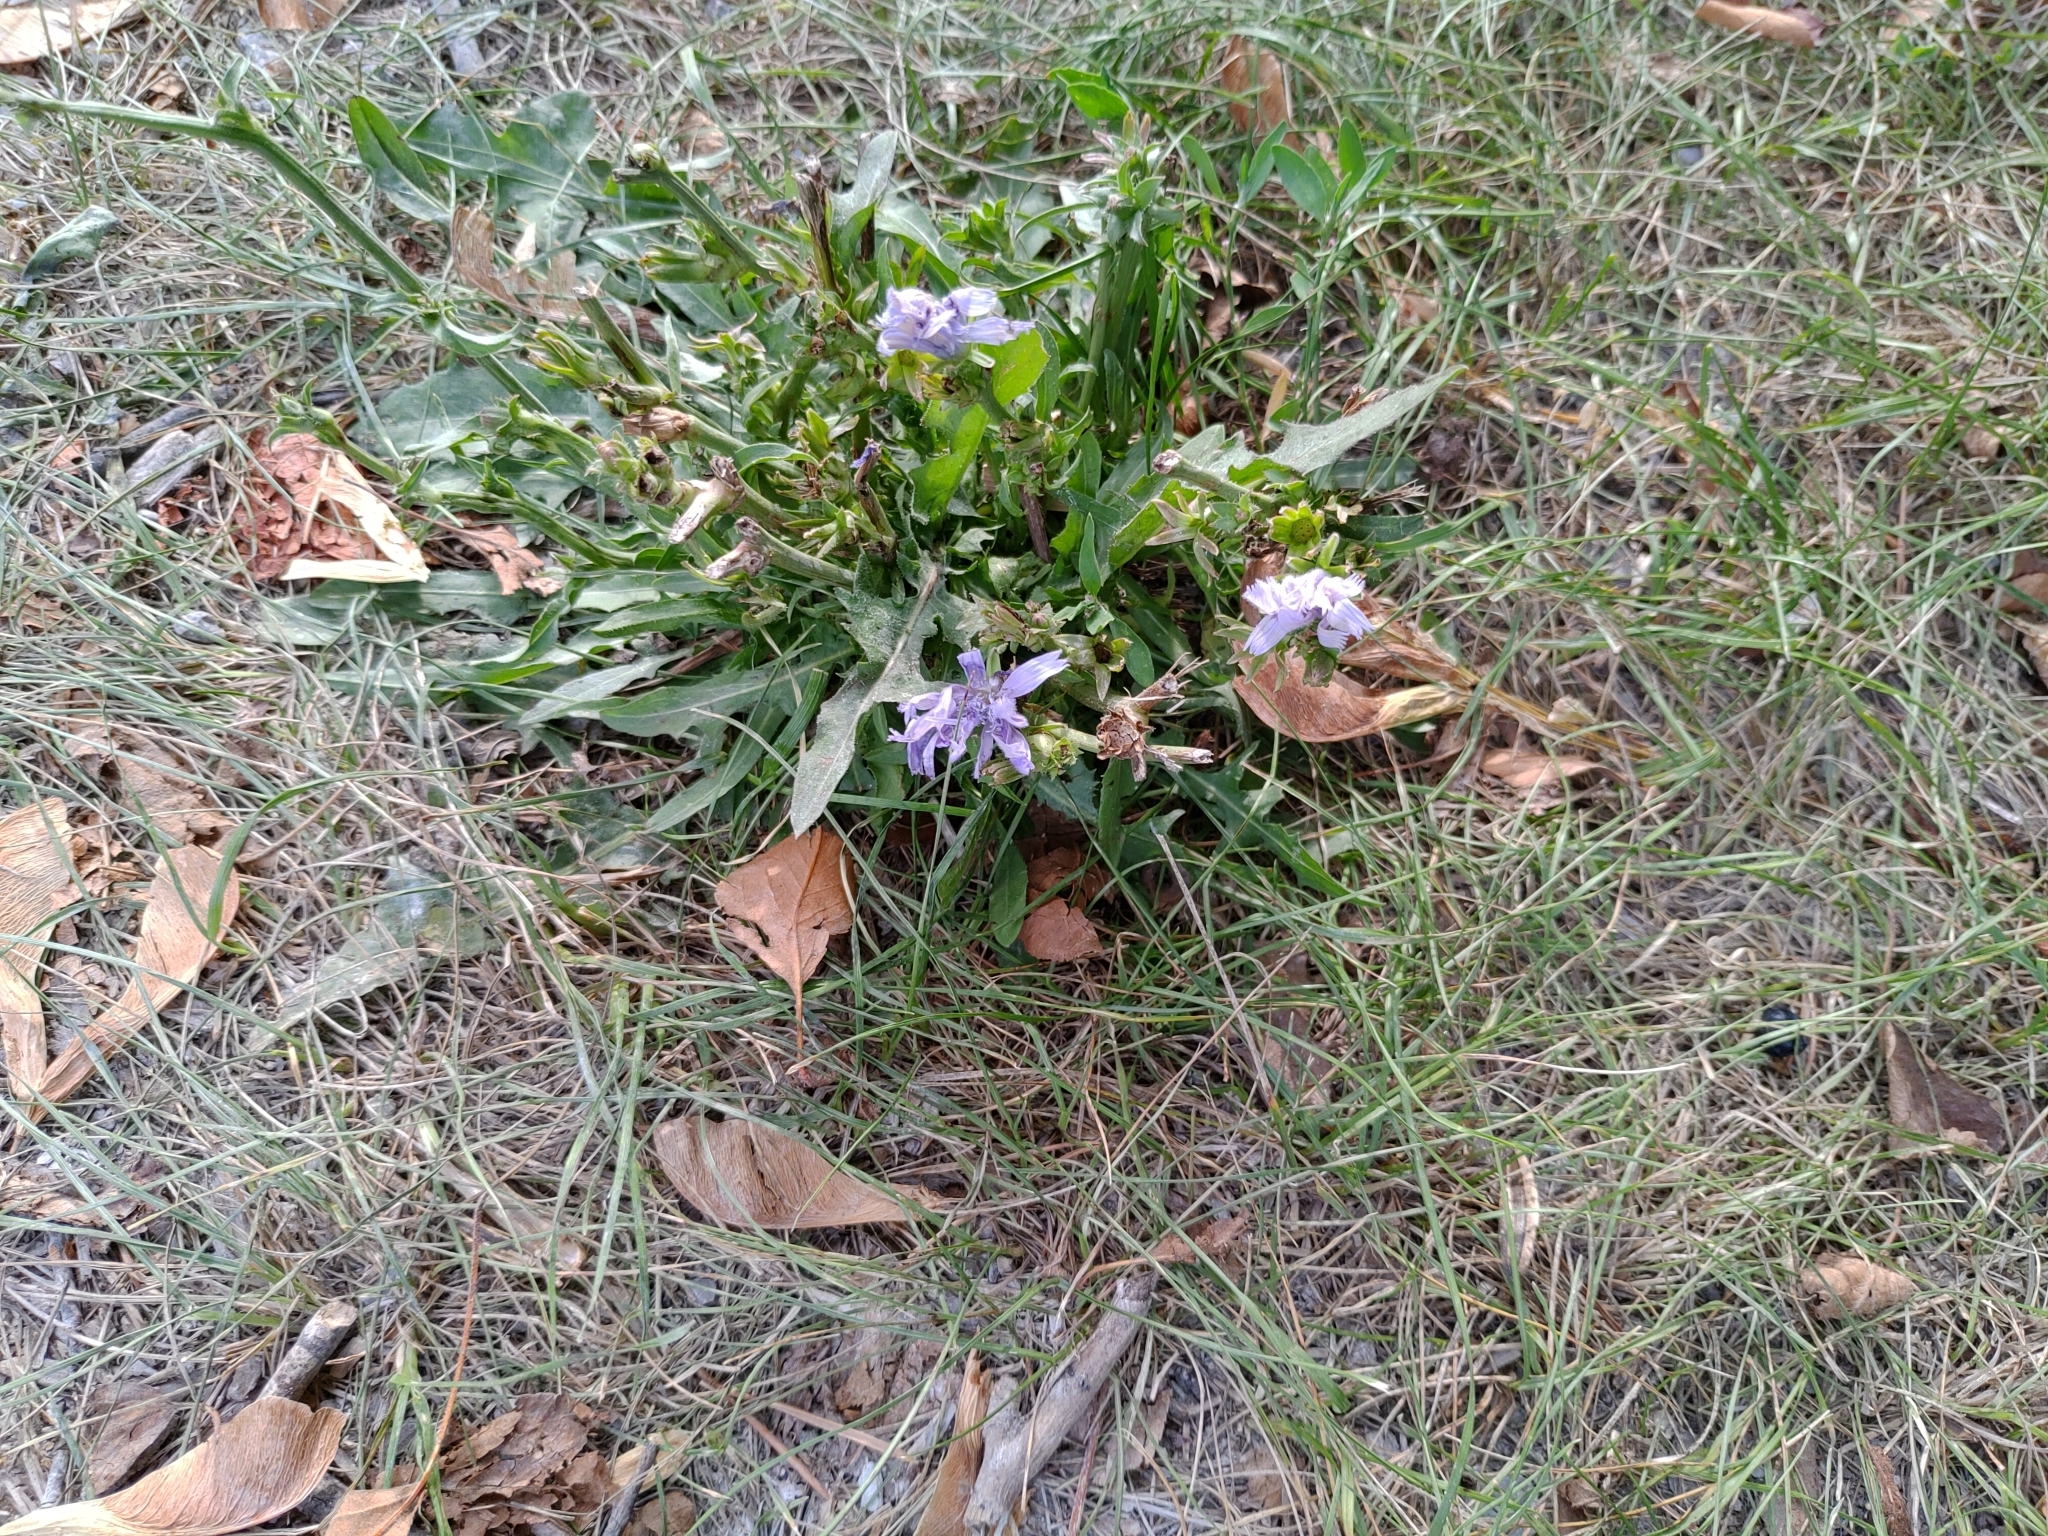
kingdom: Plantae
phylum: Tracheophyta
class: Magnoliopsida
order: Asterales
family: Asteraceae
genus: Cichorium
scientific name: Cichorium intybus
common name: Chicory
